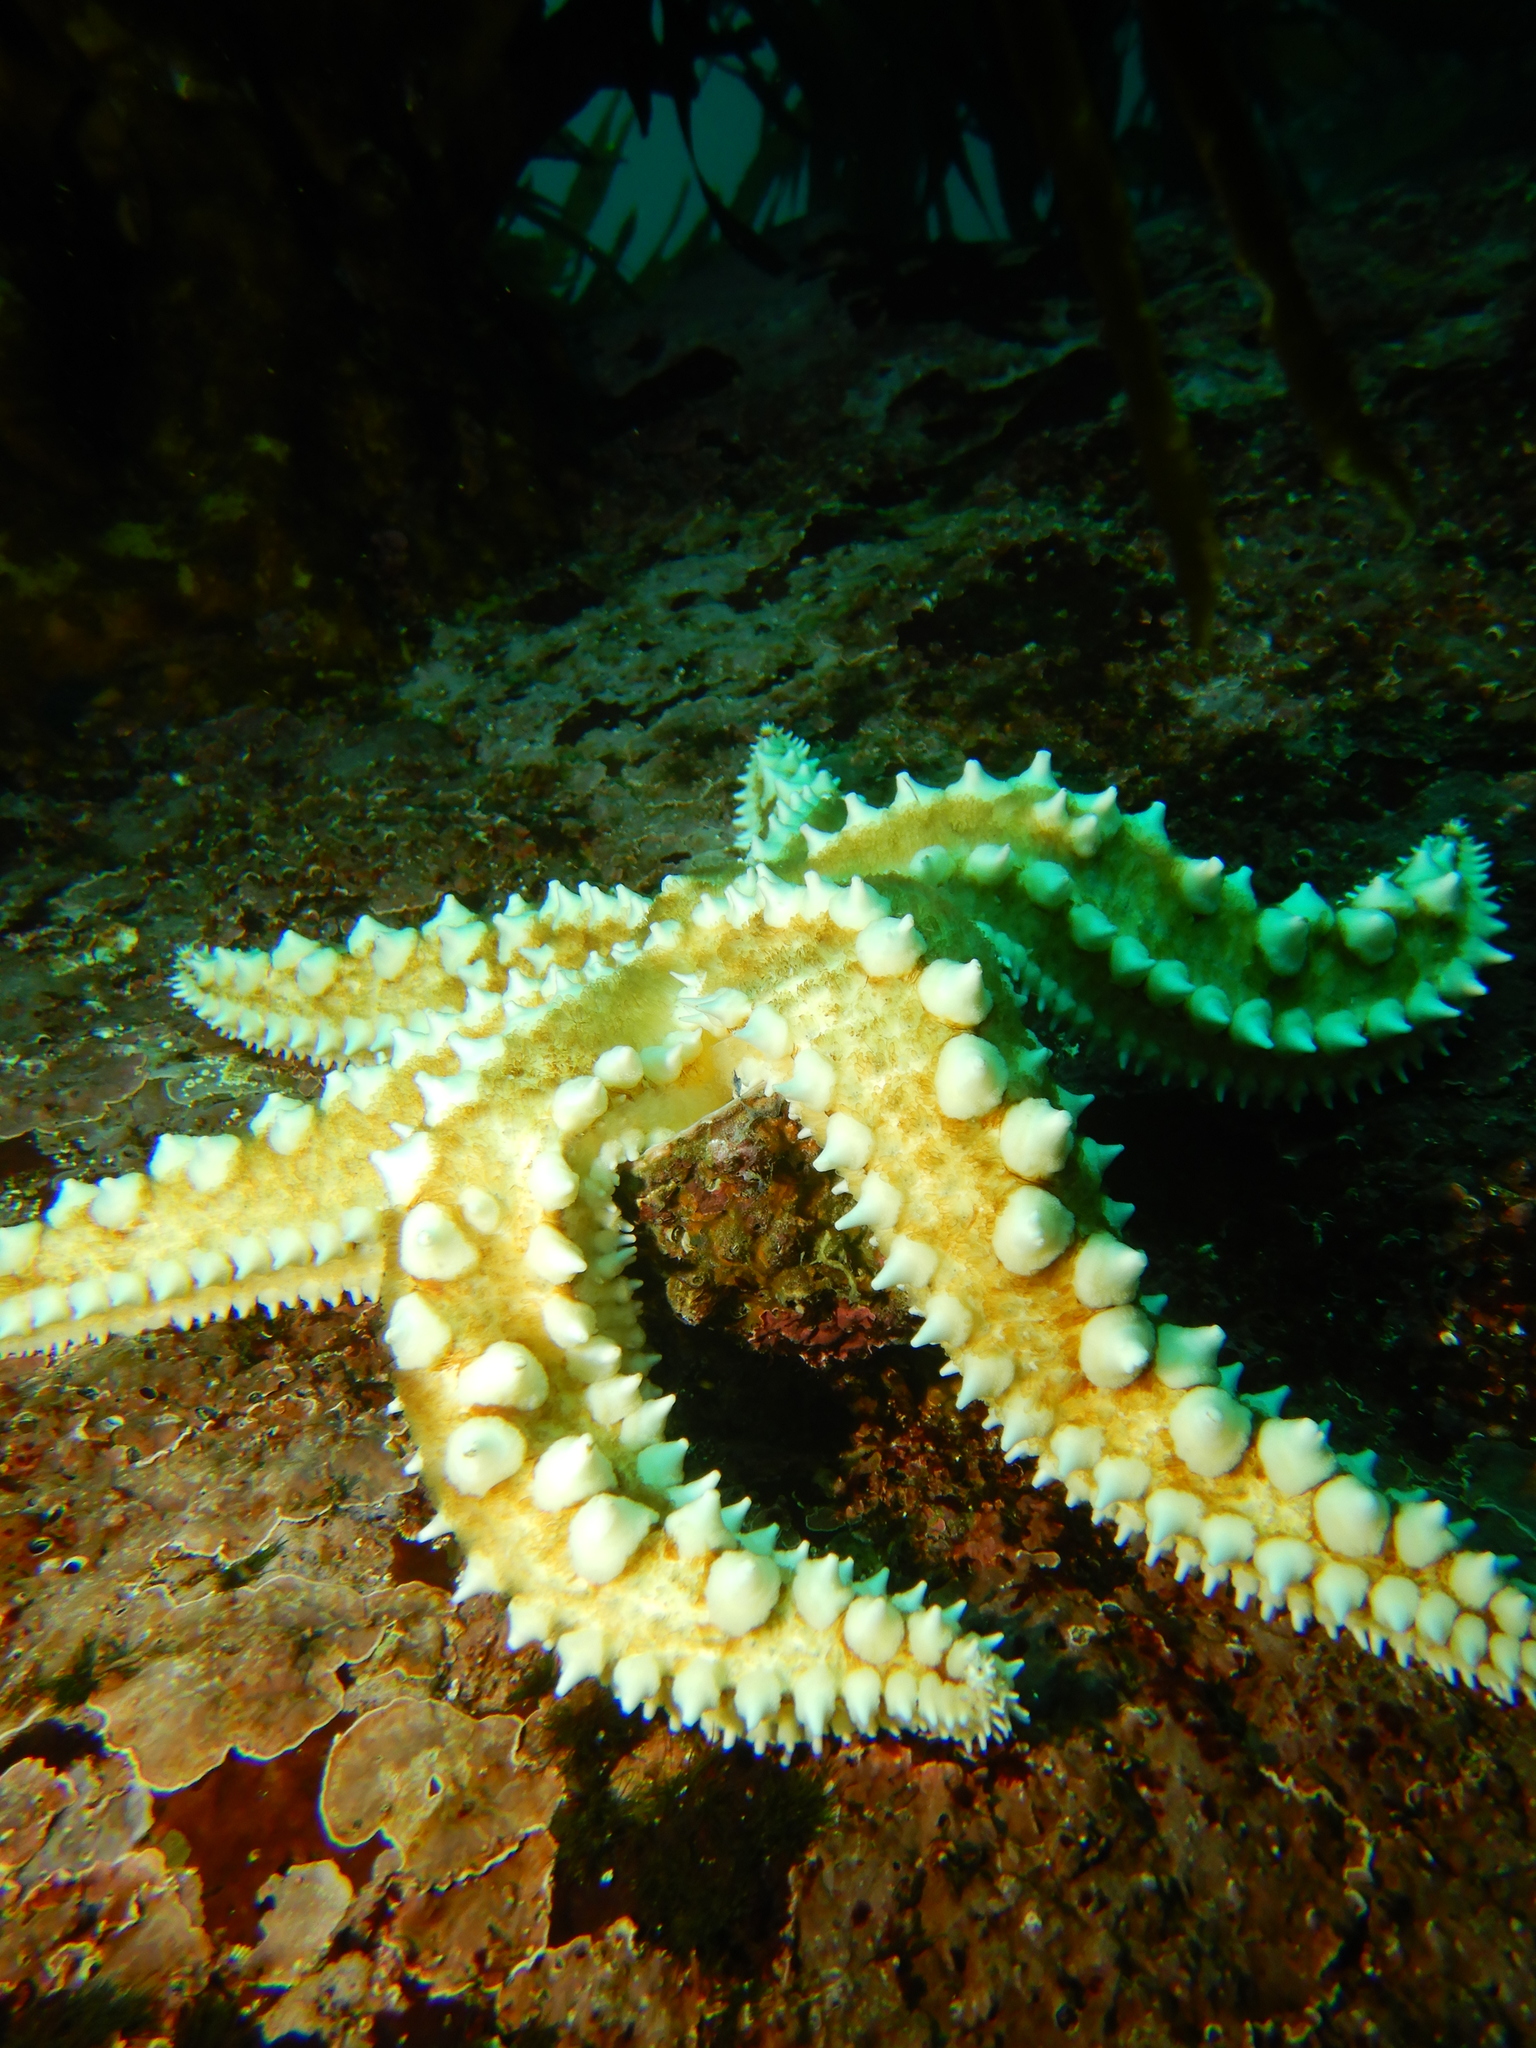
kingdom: Animalia
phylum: Echinodermata
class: Asteroidea
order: Forcipulatida
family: Asteriidae
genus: Meyenaster
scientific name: Meyenaster gelatinosus
